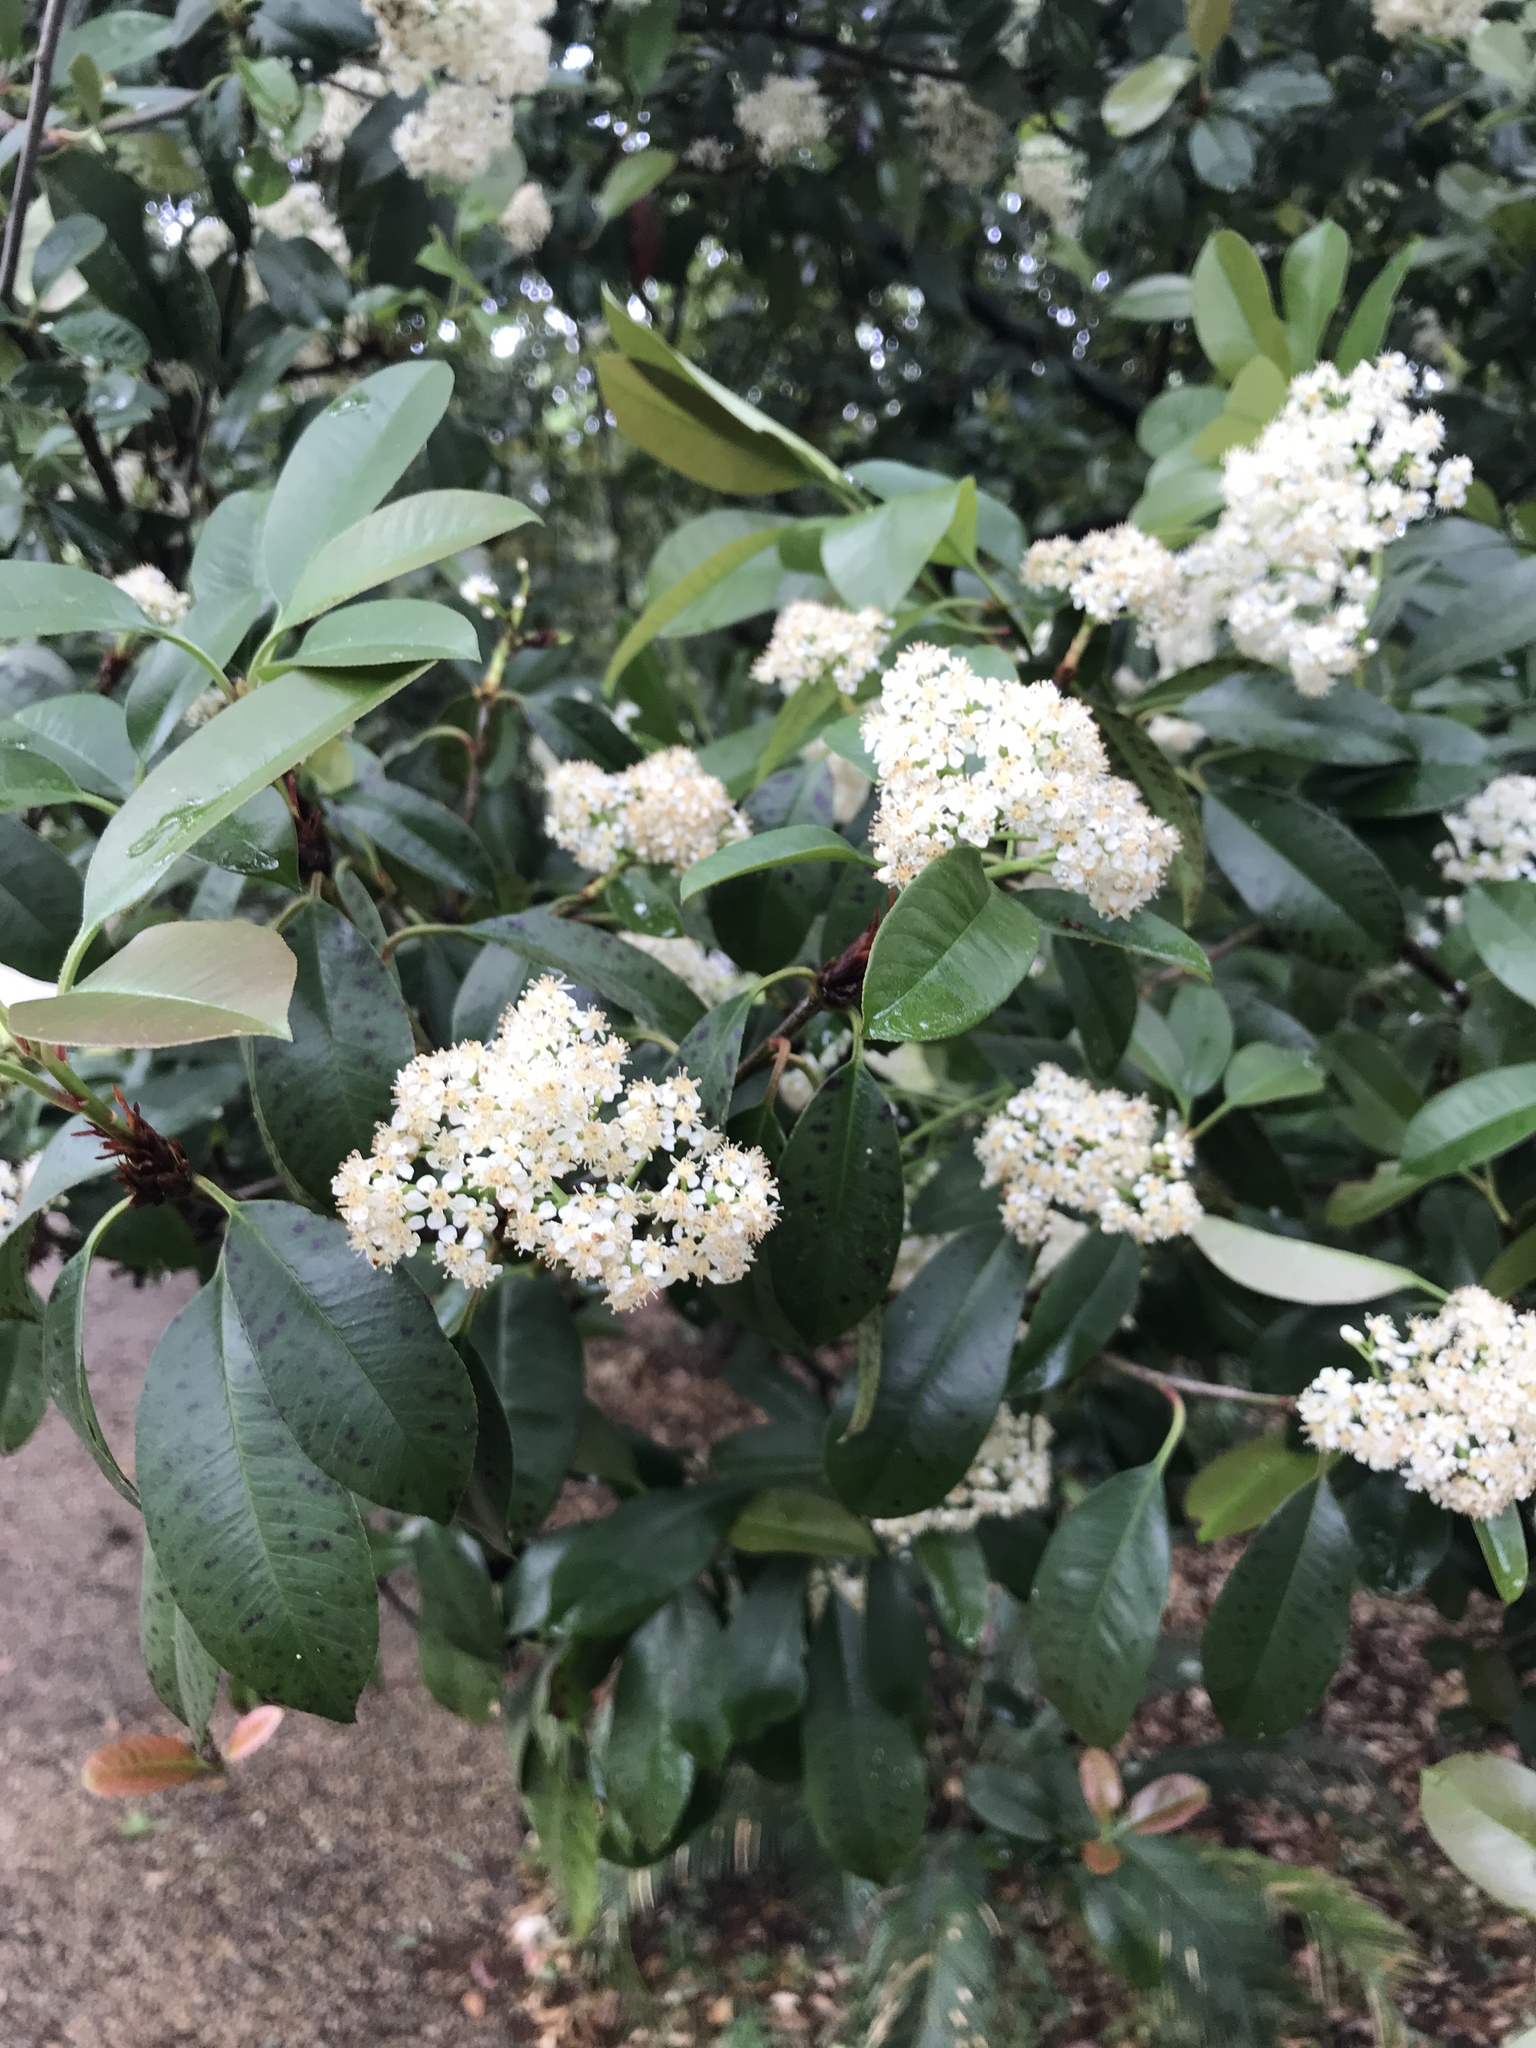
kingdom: Plantae
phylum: Tracheophyta
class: Magnoliopsida
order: Rosales
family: Rosaceae
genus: Photinia
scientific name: Photinia fraseri
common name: Fraser's photinia
